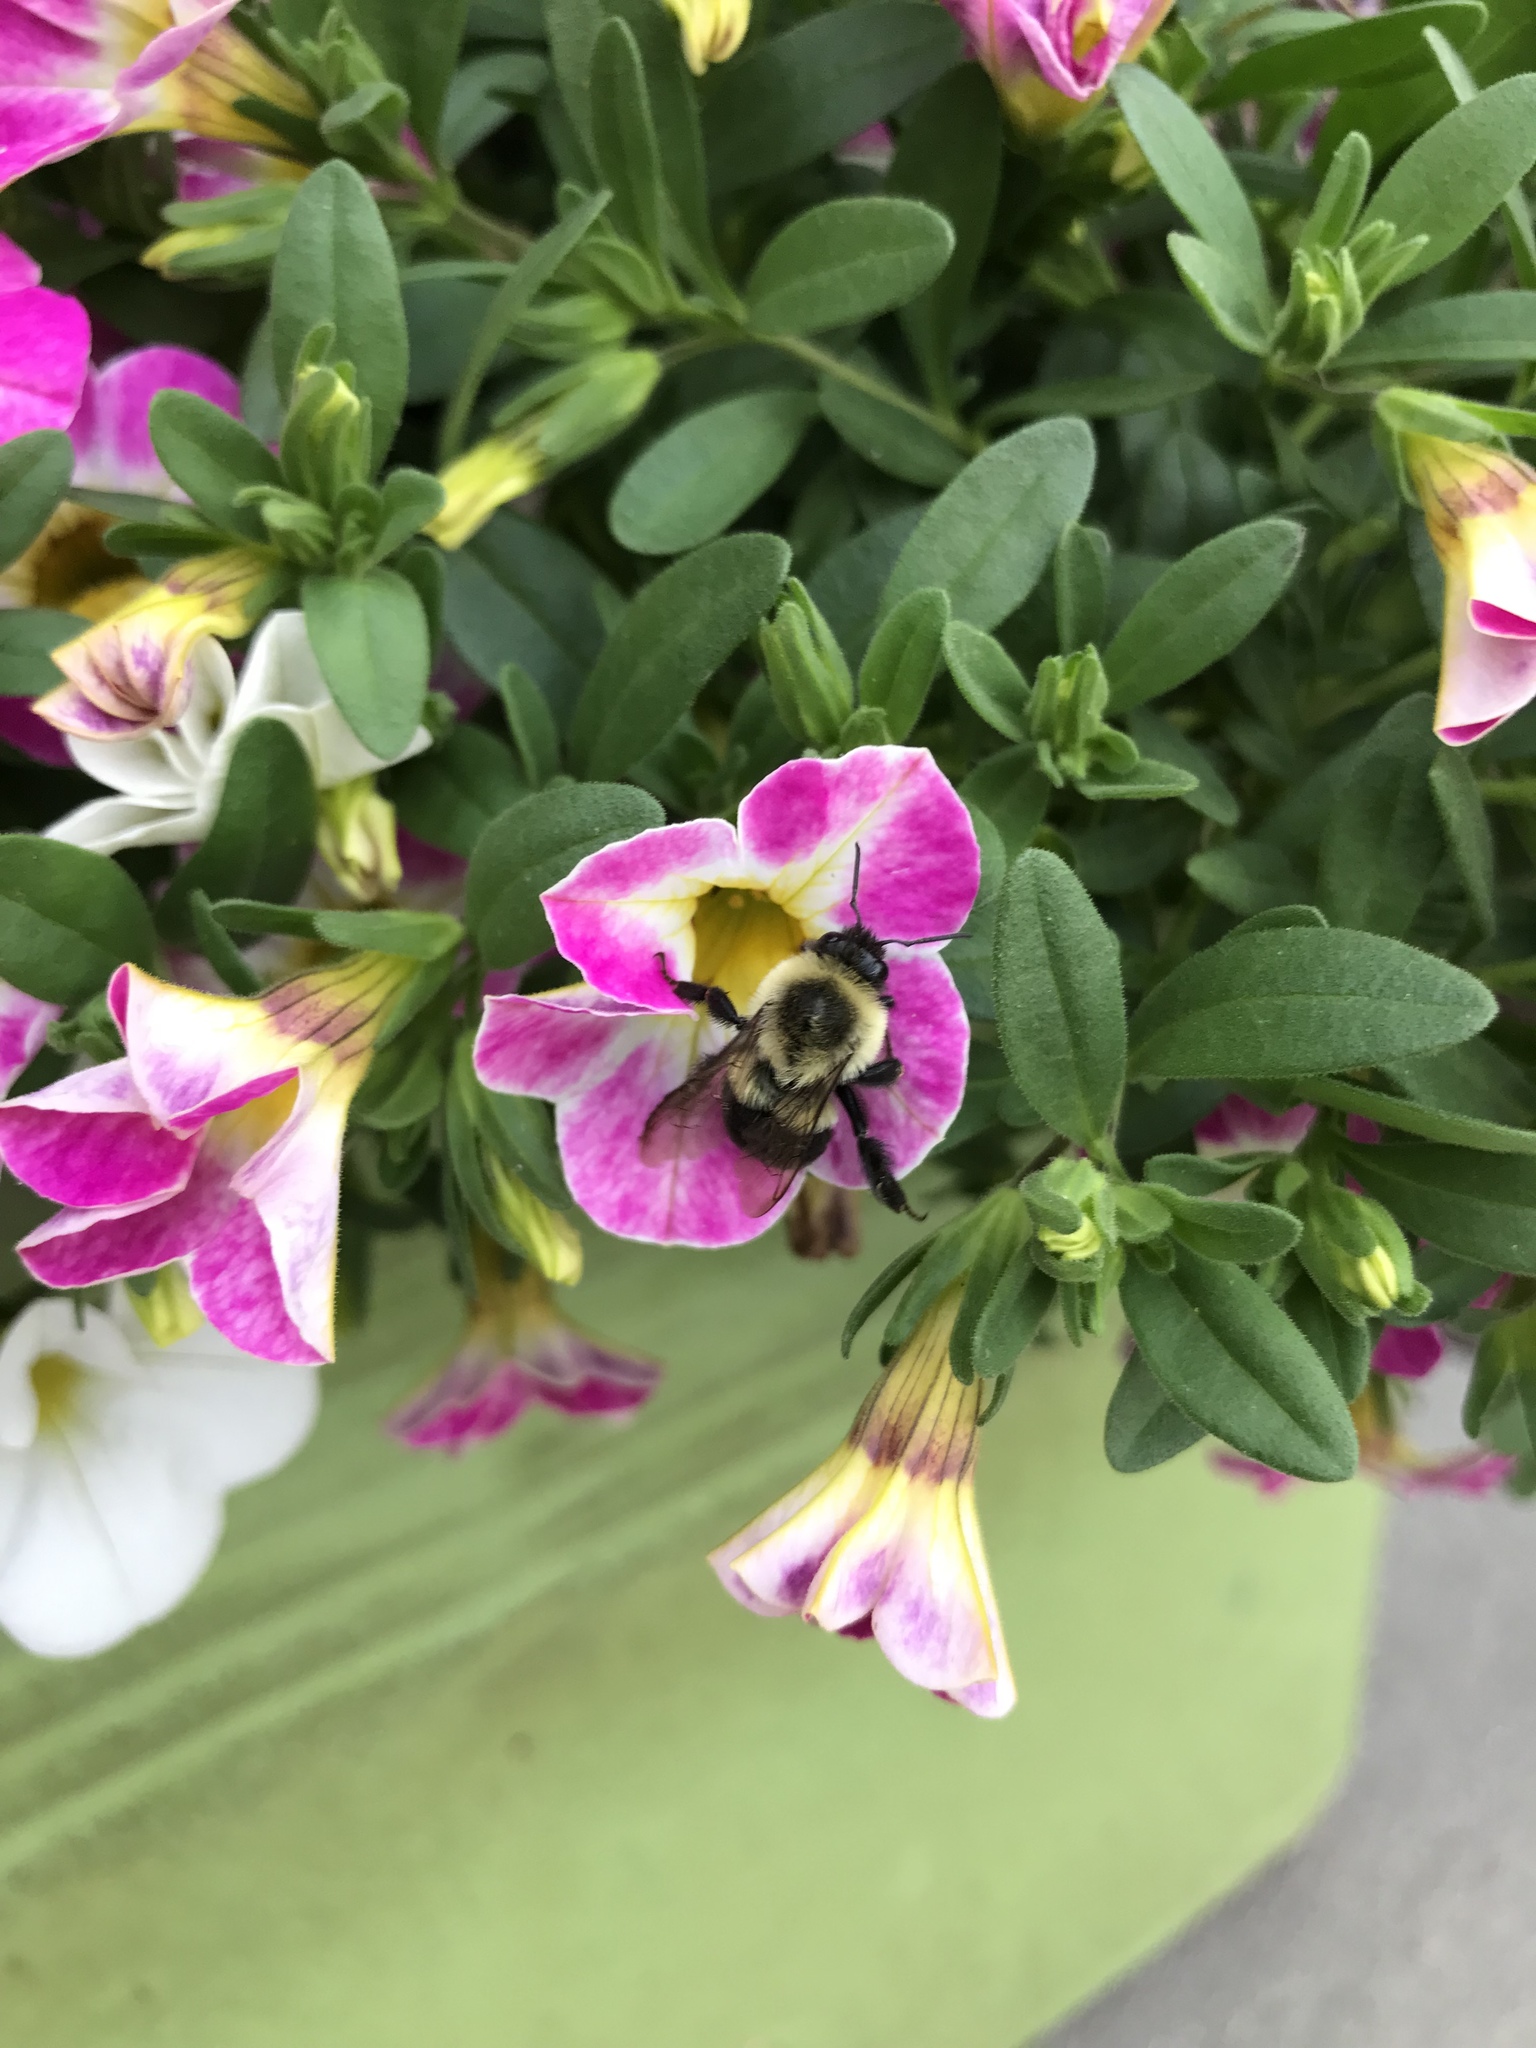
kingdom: Animalia
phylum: Arthropoda
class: Insecta
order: Hymenoptera
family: Apidae
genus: Bombus
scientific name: Bombus impatiens
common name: Common eastern bumble bee
